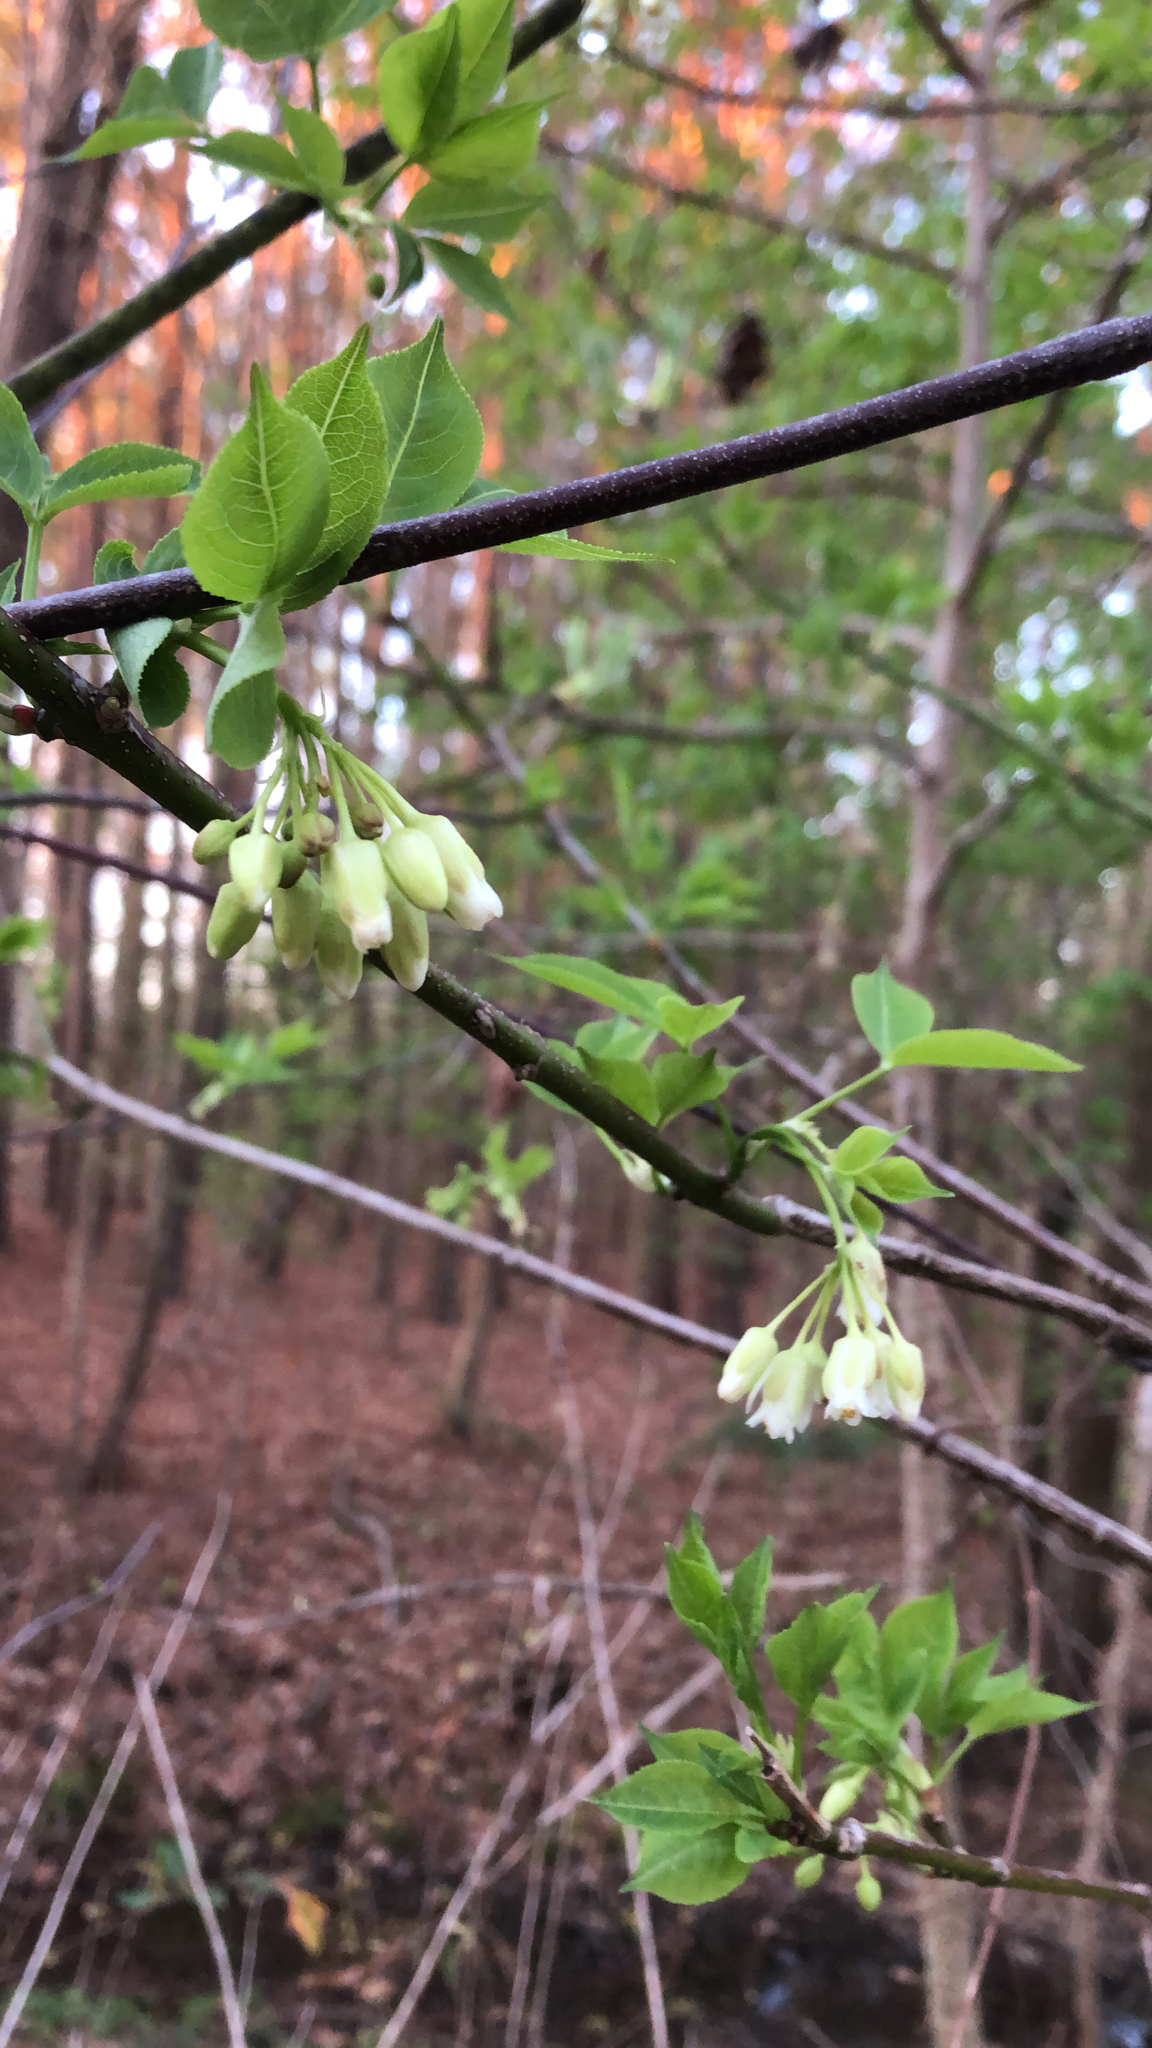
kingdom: Plantae
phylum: Tracheophyta
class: Magnoliopsida
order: Crossosomatales
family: Staphyleaceae
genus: Staphylea
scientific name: Staphylea trifolia
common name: American bladdernut
